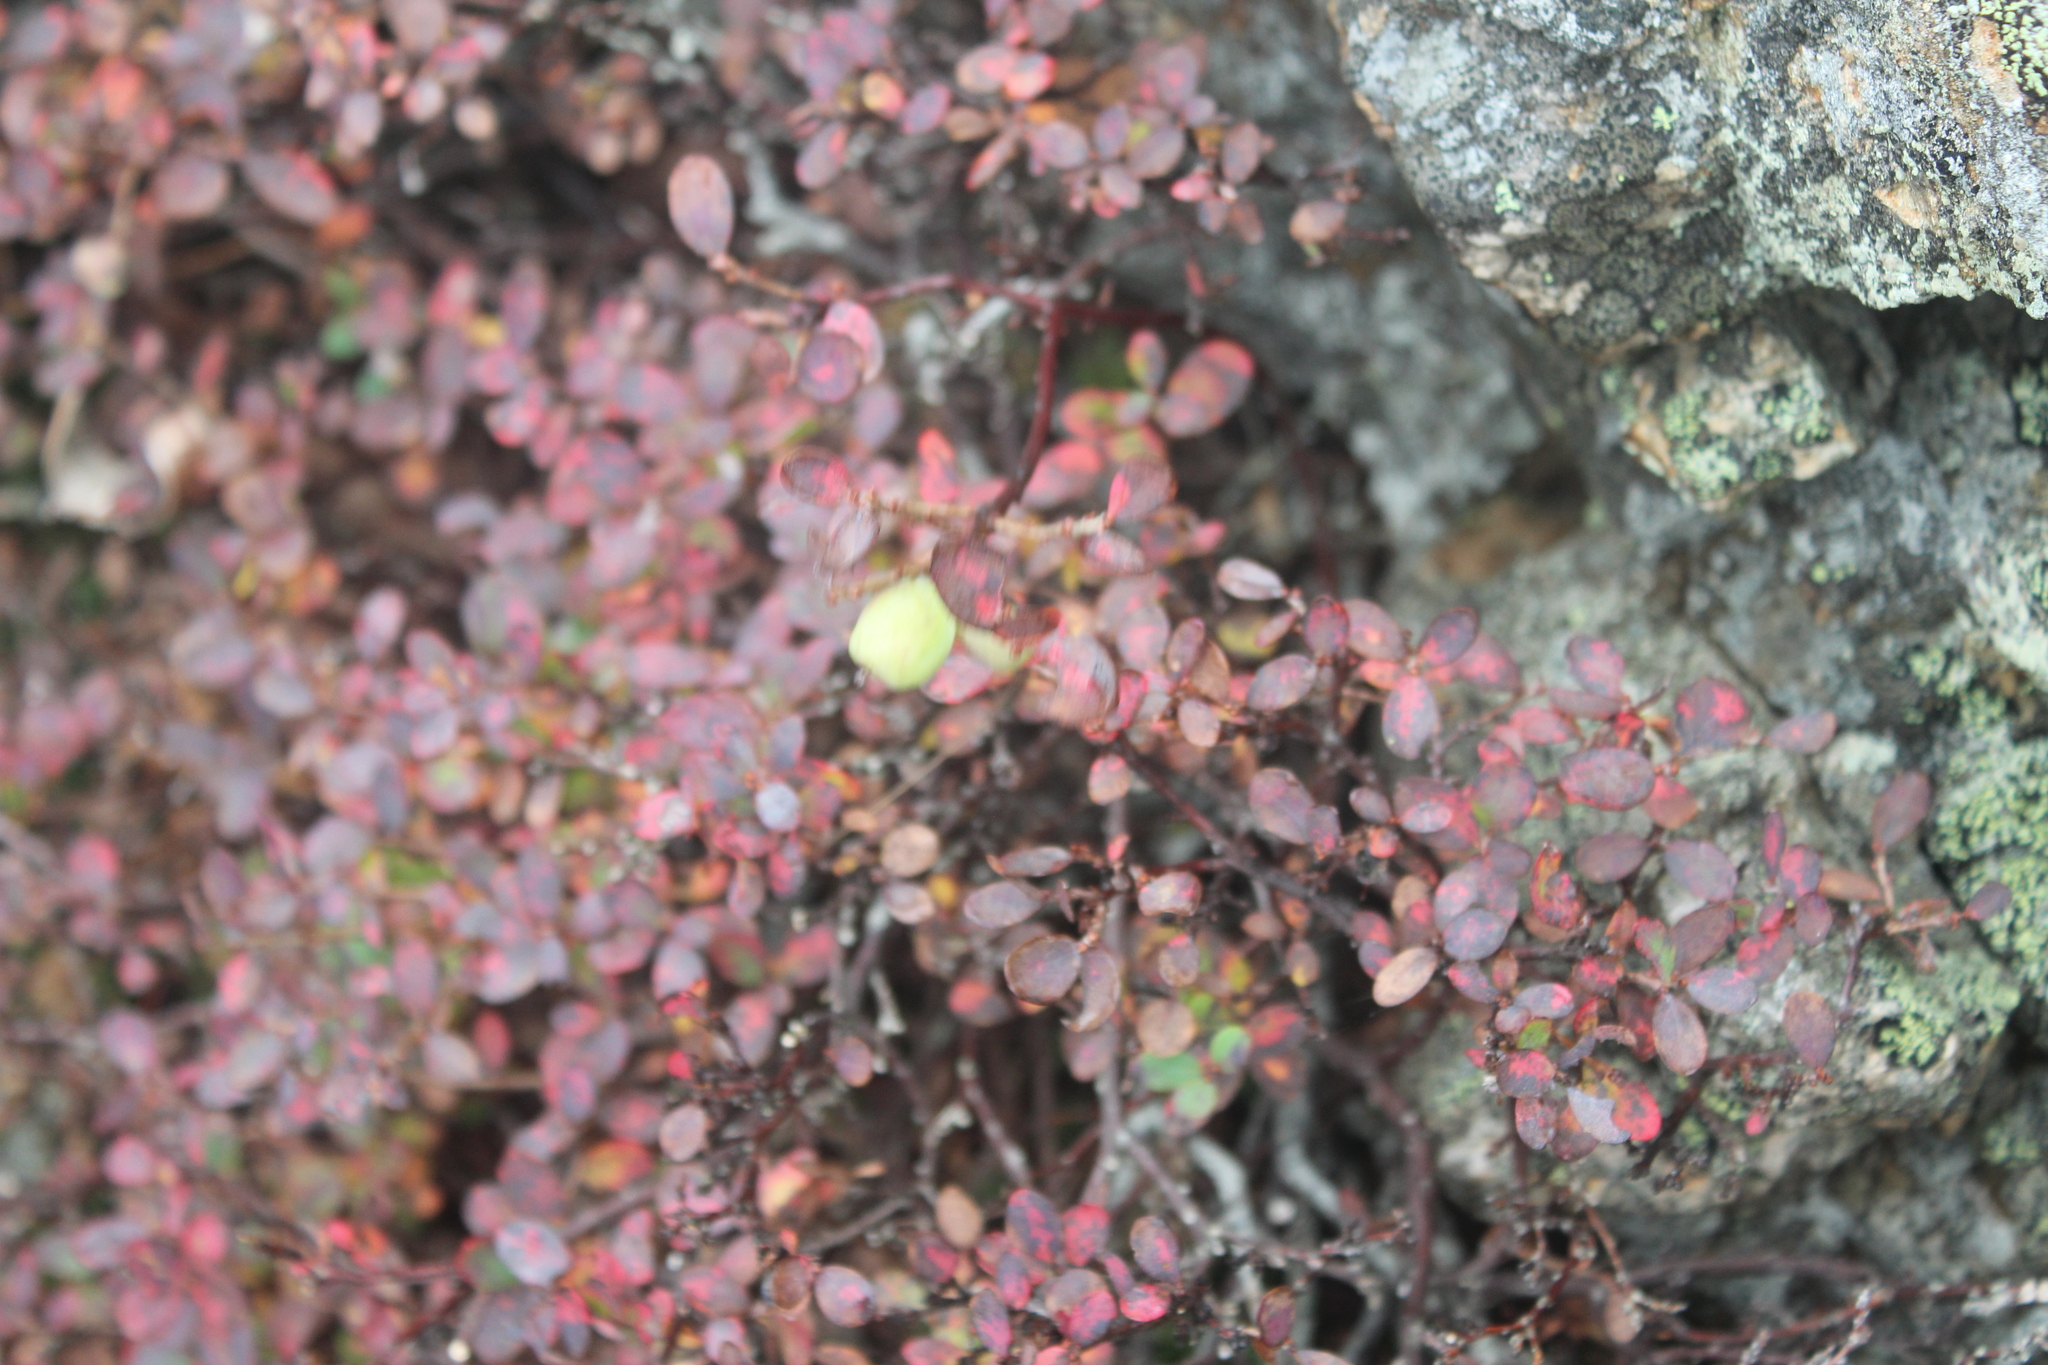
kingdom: Plantae
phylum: Tracheophyta
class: Magnoliopsida
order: Ericales
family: Ericaceae
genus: Vaccinium
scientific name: Vaccinium uliginosum
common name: Bog bilberry
